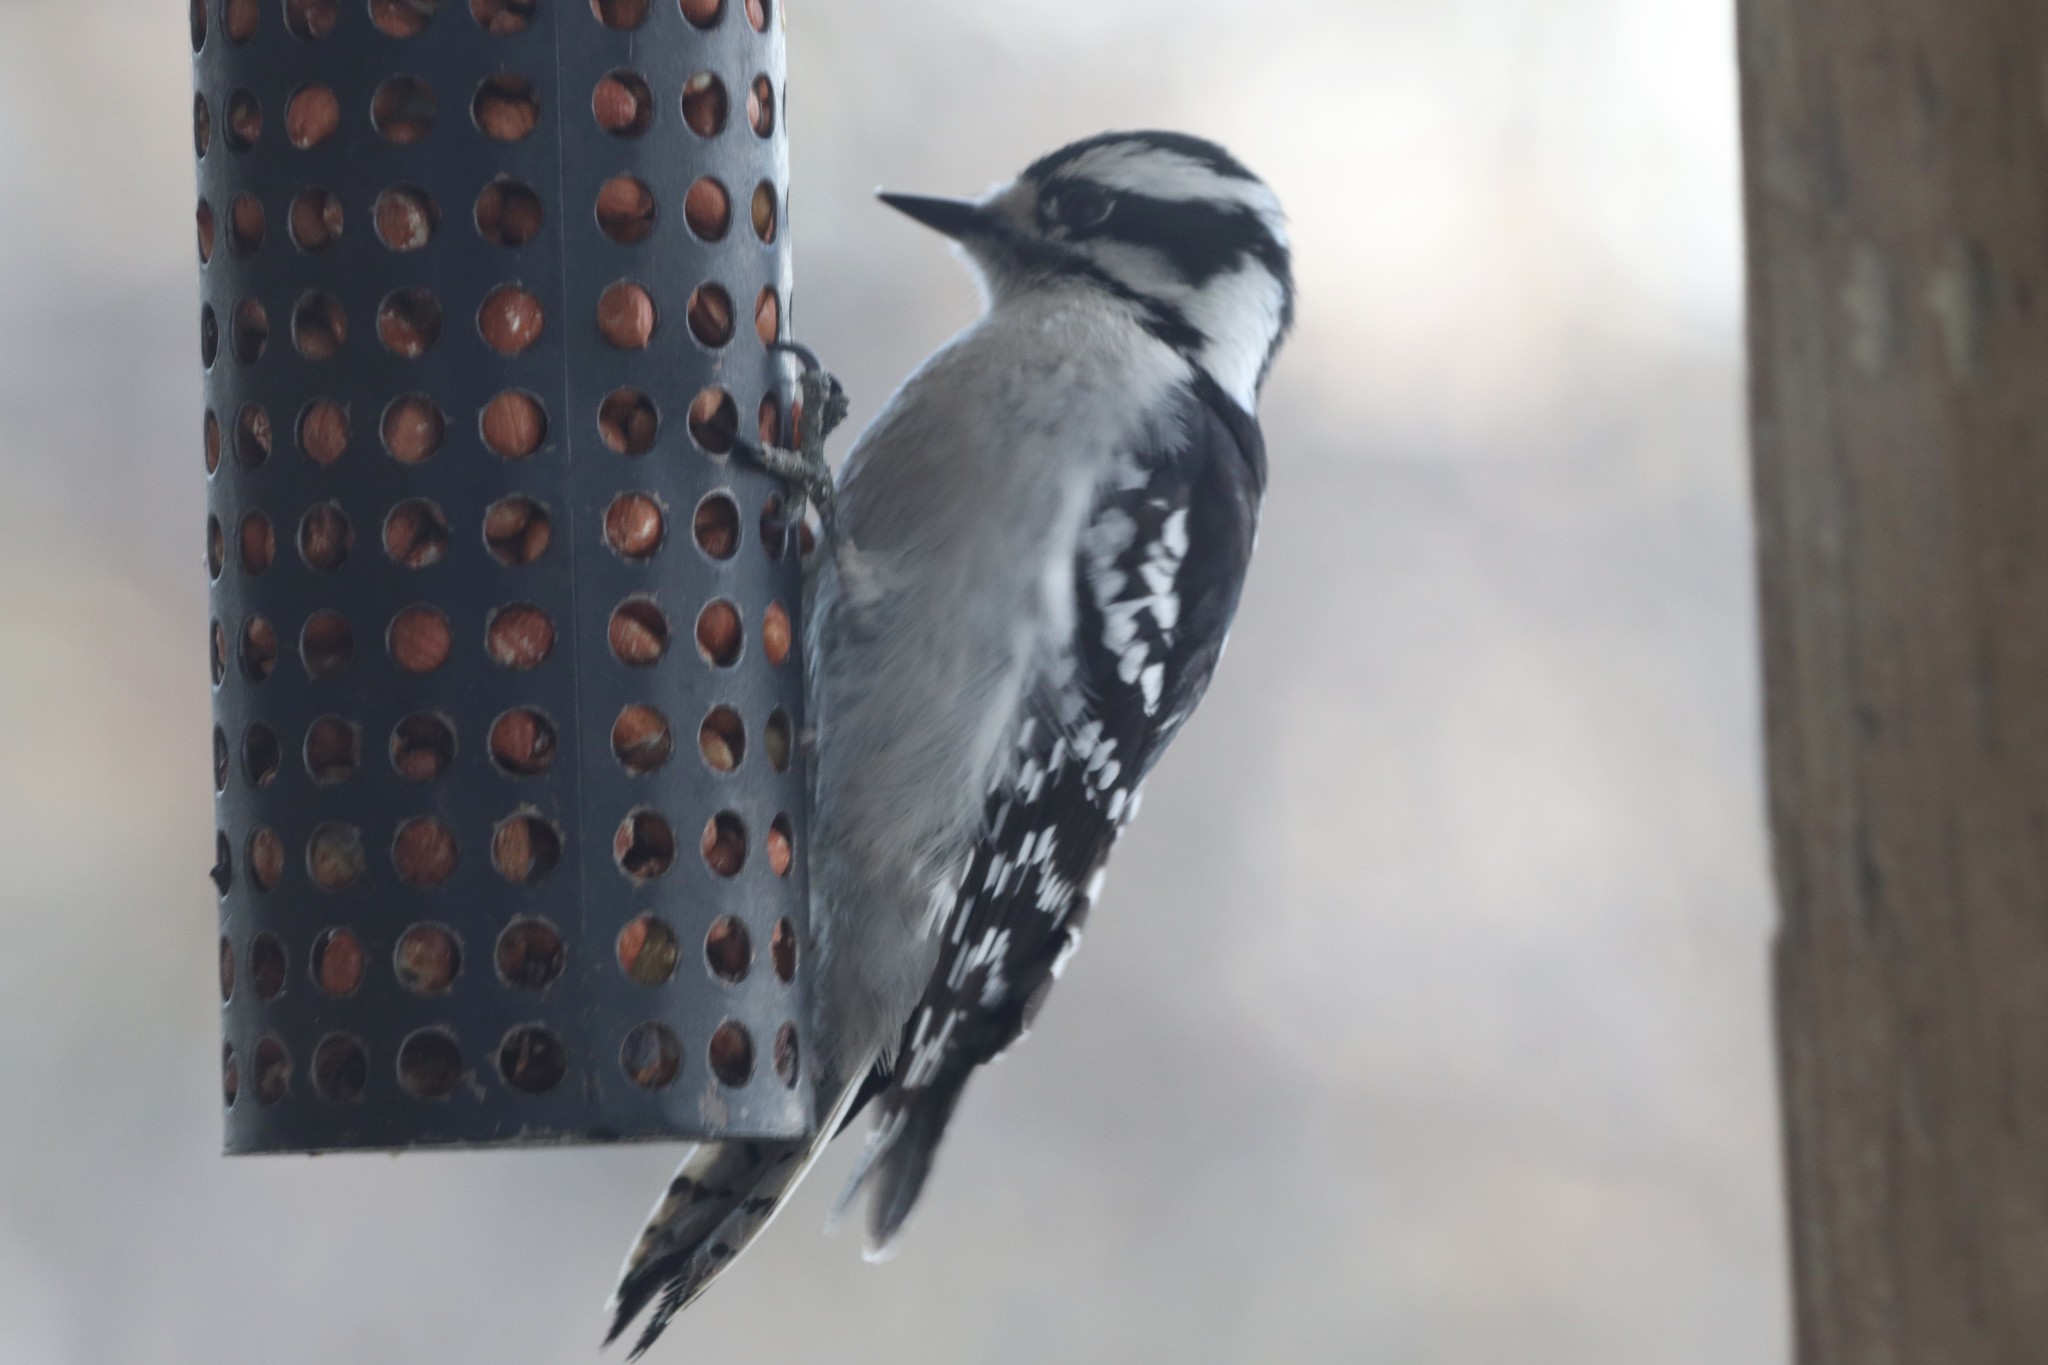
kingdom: Animalia
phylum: Chordata
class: Aves
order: Piciformes
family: Picidae
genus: Dryobates
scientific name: Dryobates pubescens
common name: Downy woodpecker
